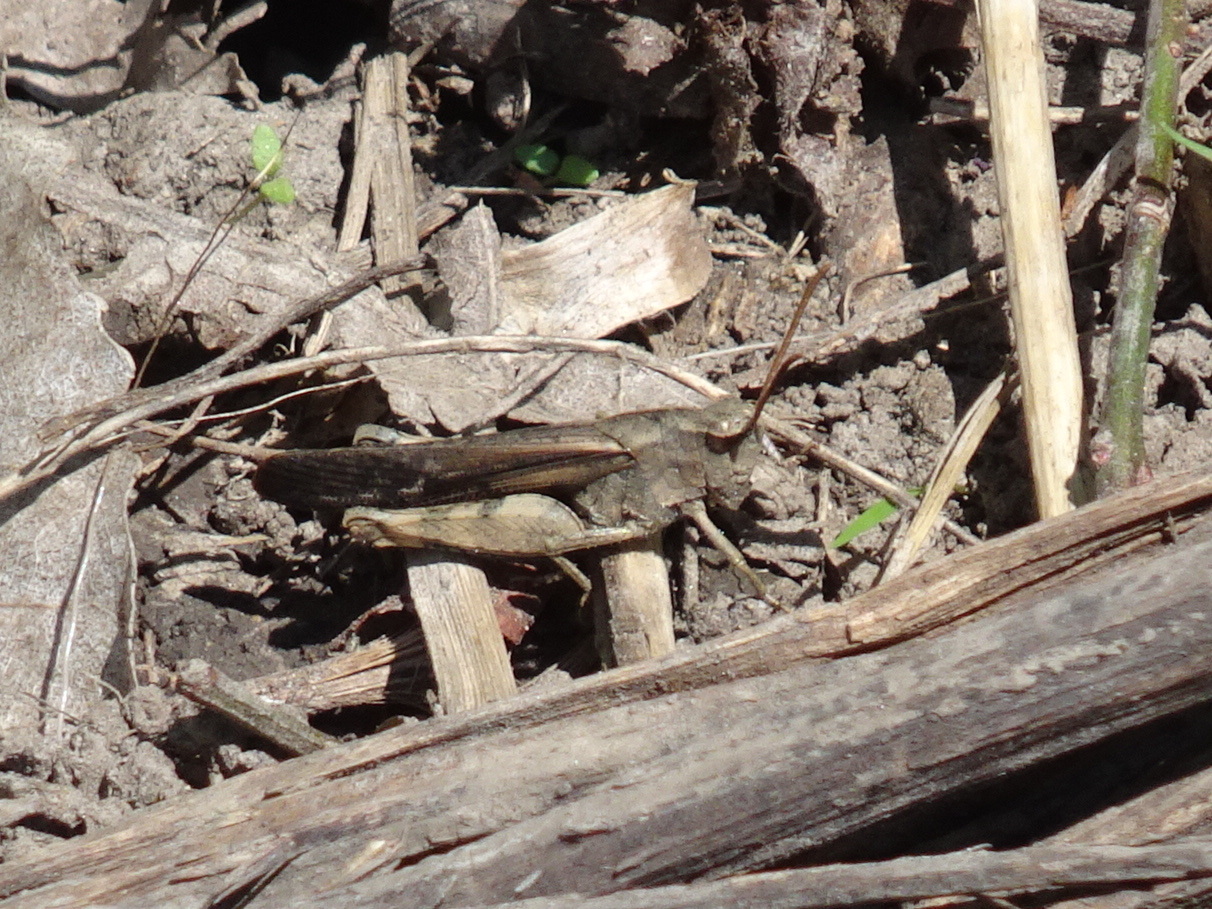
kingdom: Animalia
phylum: Arthropoda
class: Insecta
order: Orthoptera
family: Acrididae
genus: Chortophaga
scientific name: Chortophaga viridifasciata
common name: Green-striped grasshopper
